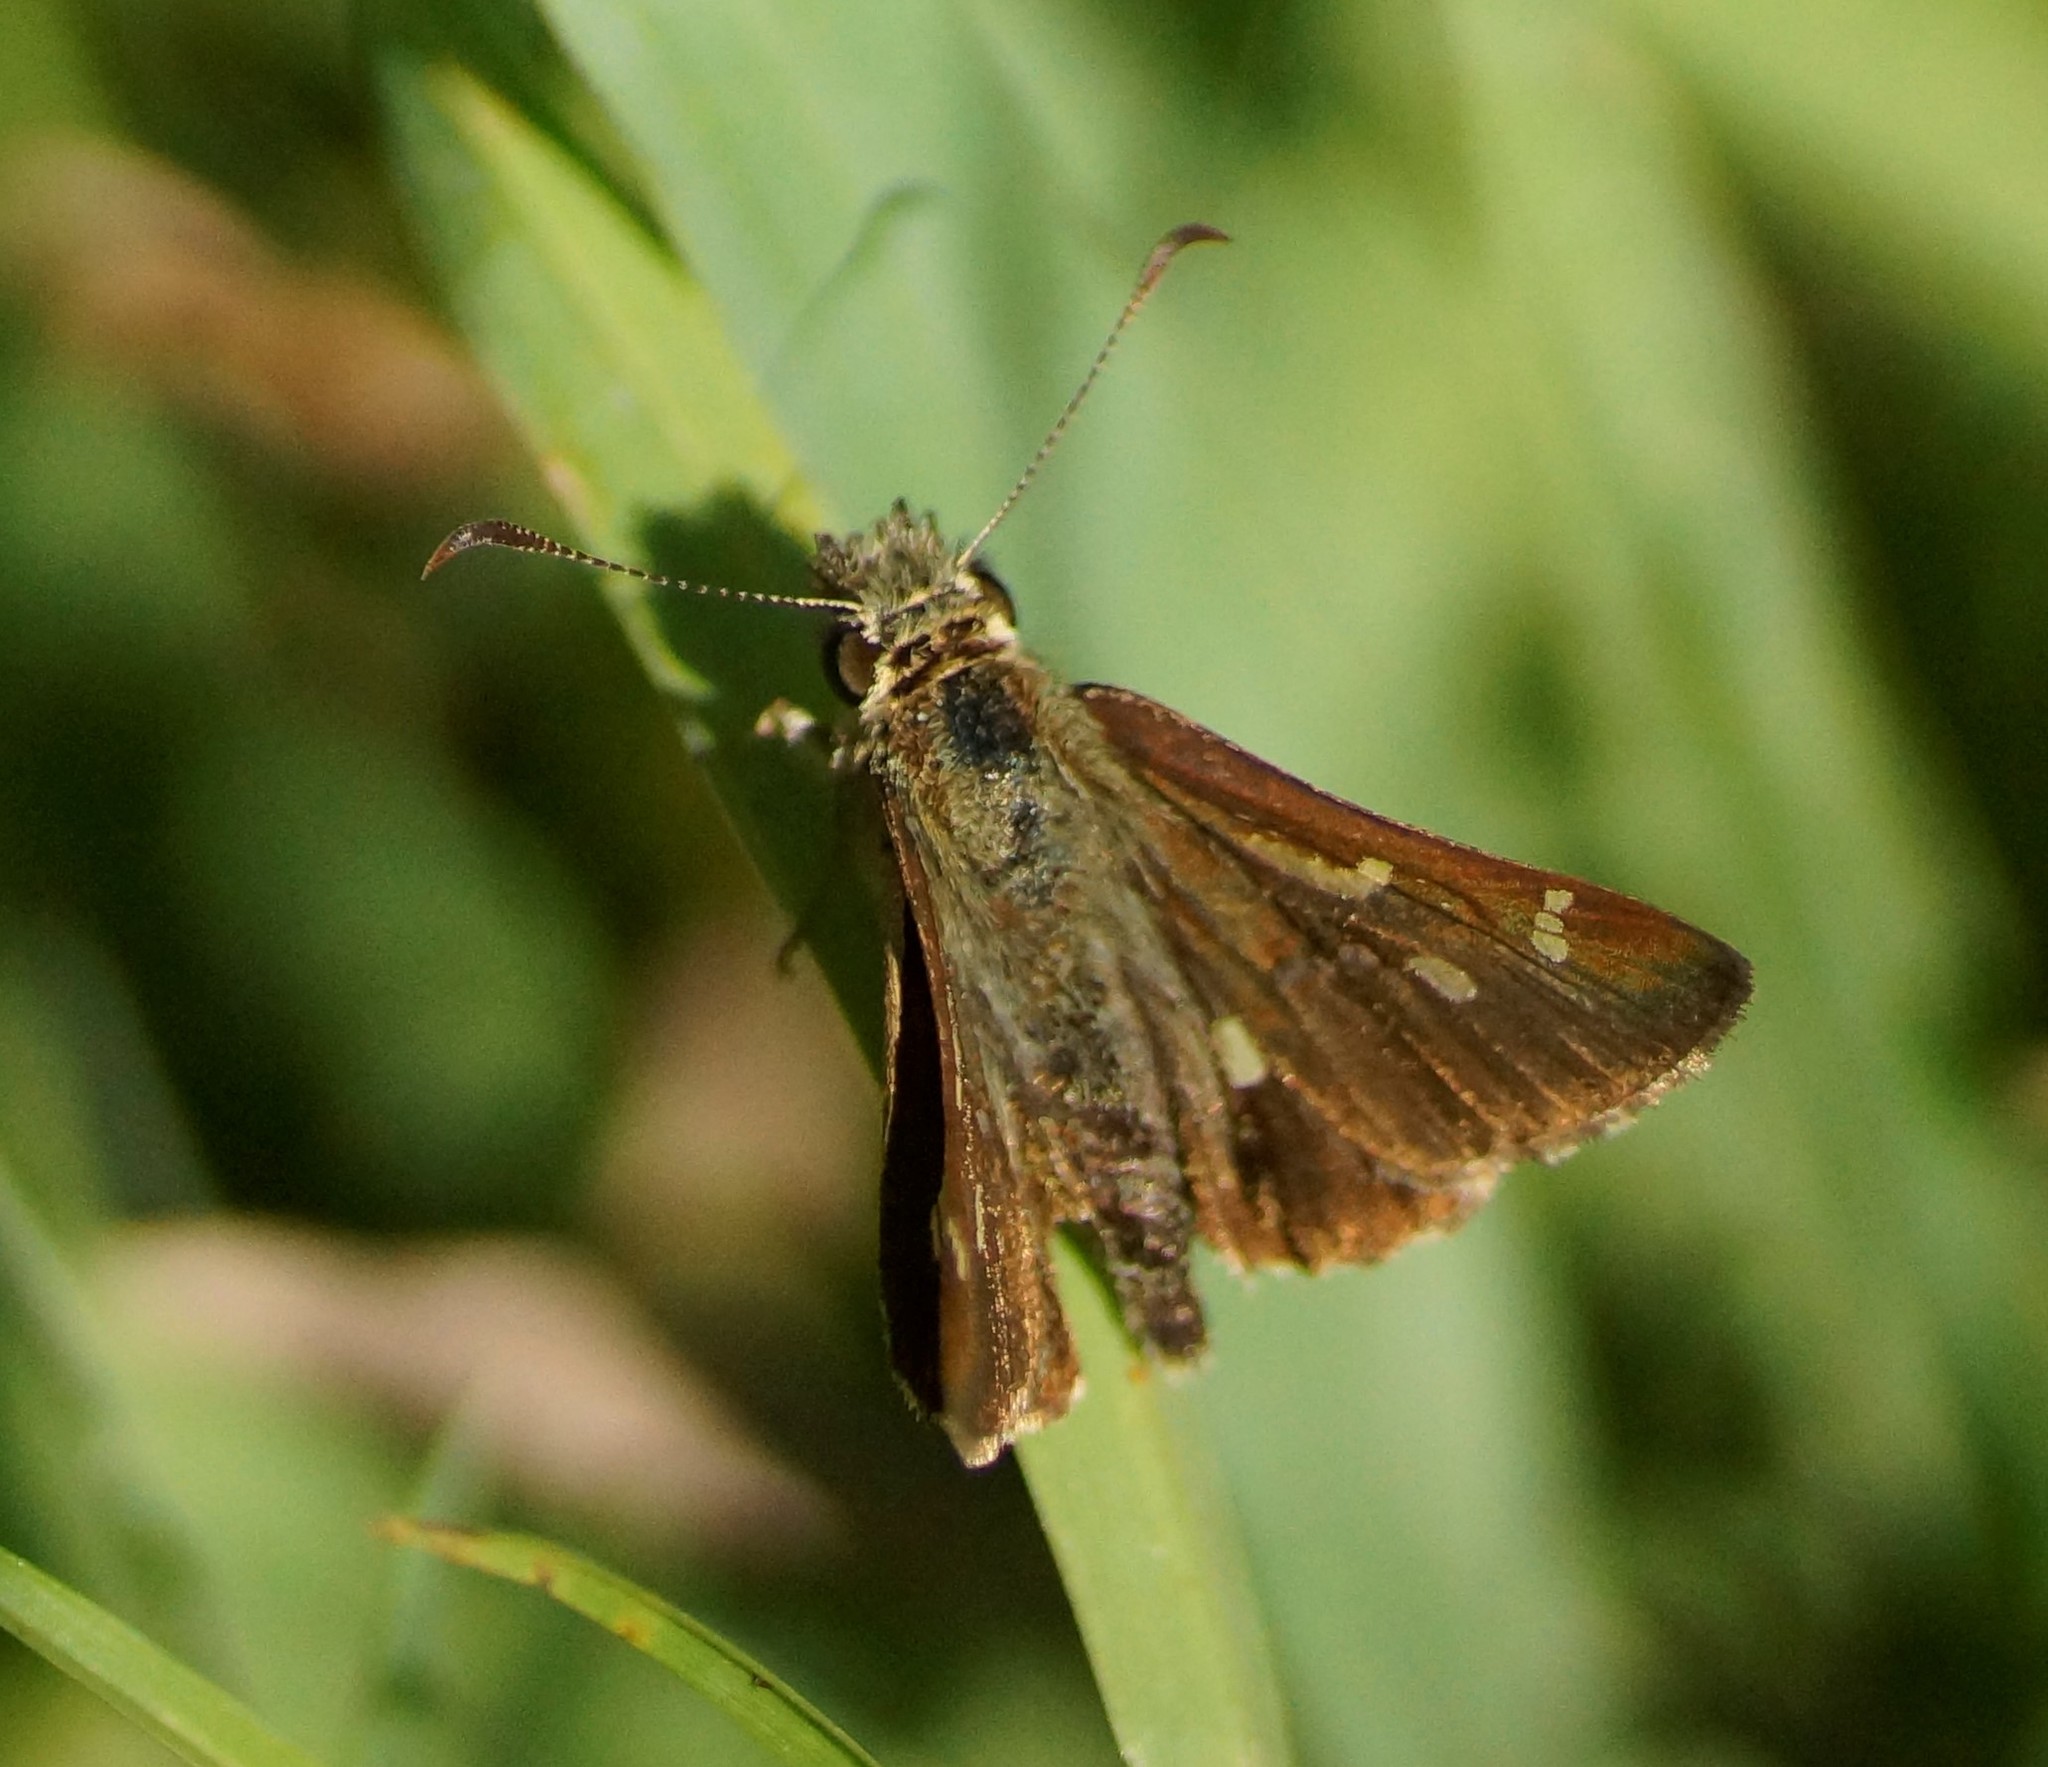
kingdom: Animalia
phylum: Arthropoda
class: Insecta
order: Lepidoptera
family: Hesperiidae
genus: Dispar
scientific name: Dispar compacta
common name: Barred skipper
